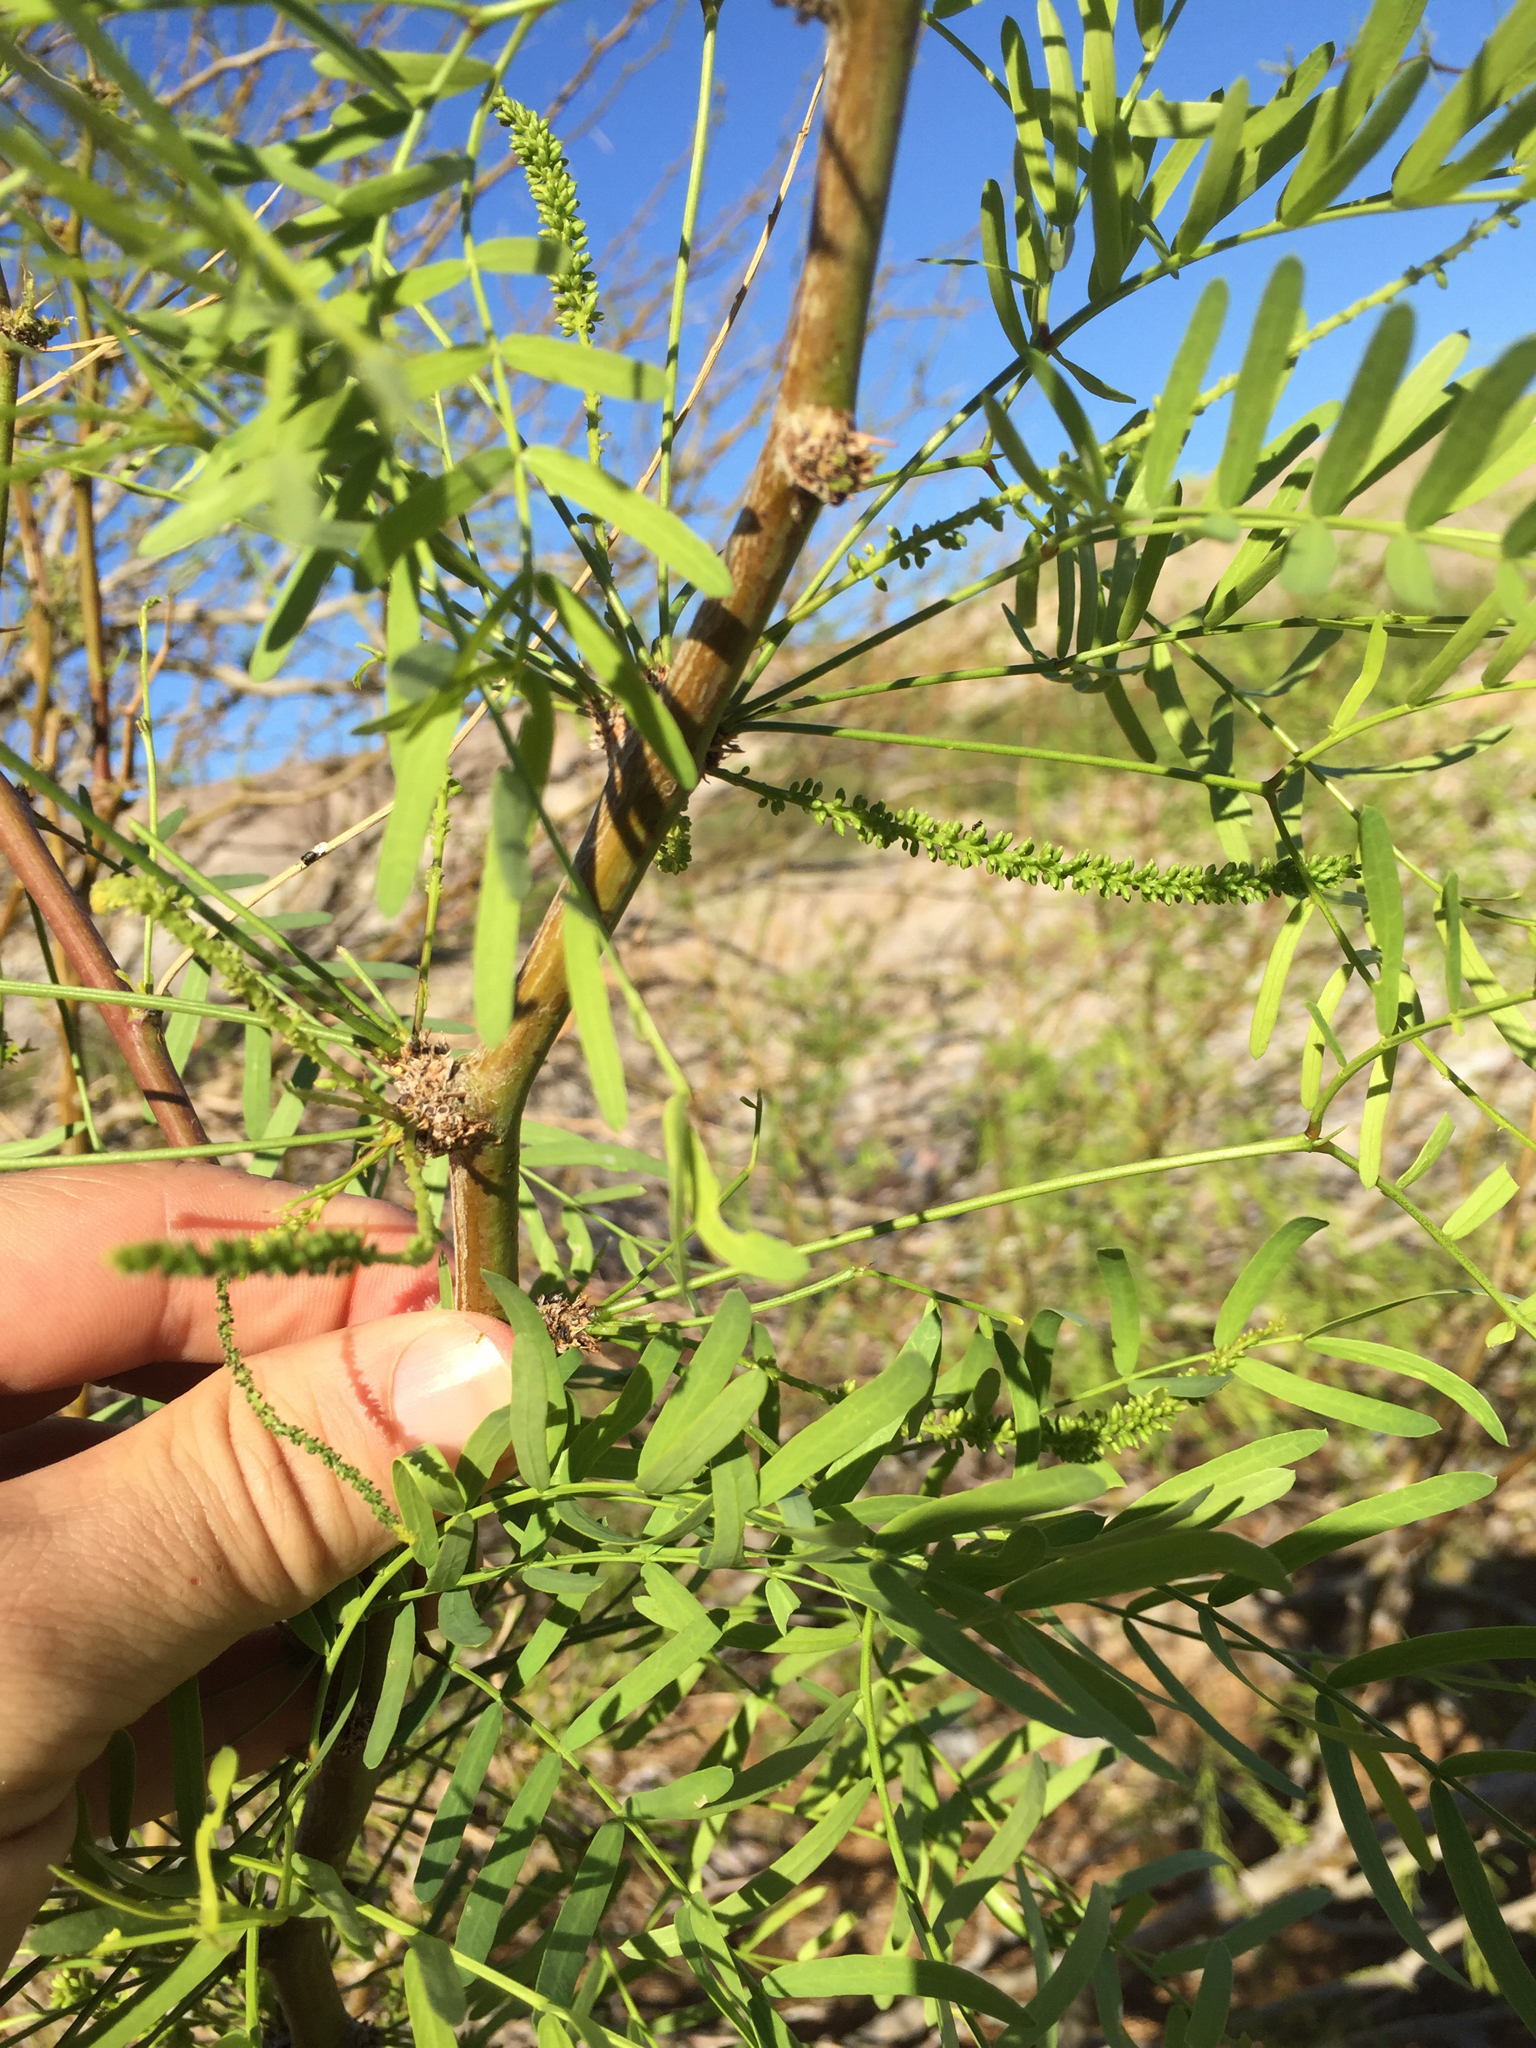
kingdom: Plantae
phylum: Tracheophyta
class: Magnoliopsida
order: Fabales
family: Fabaceae
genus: Prosopis
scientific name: Prosopis glandulosa
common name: Honey mesquite
